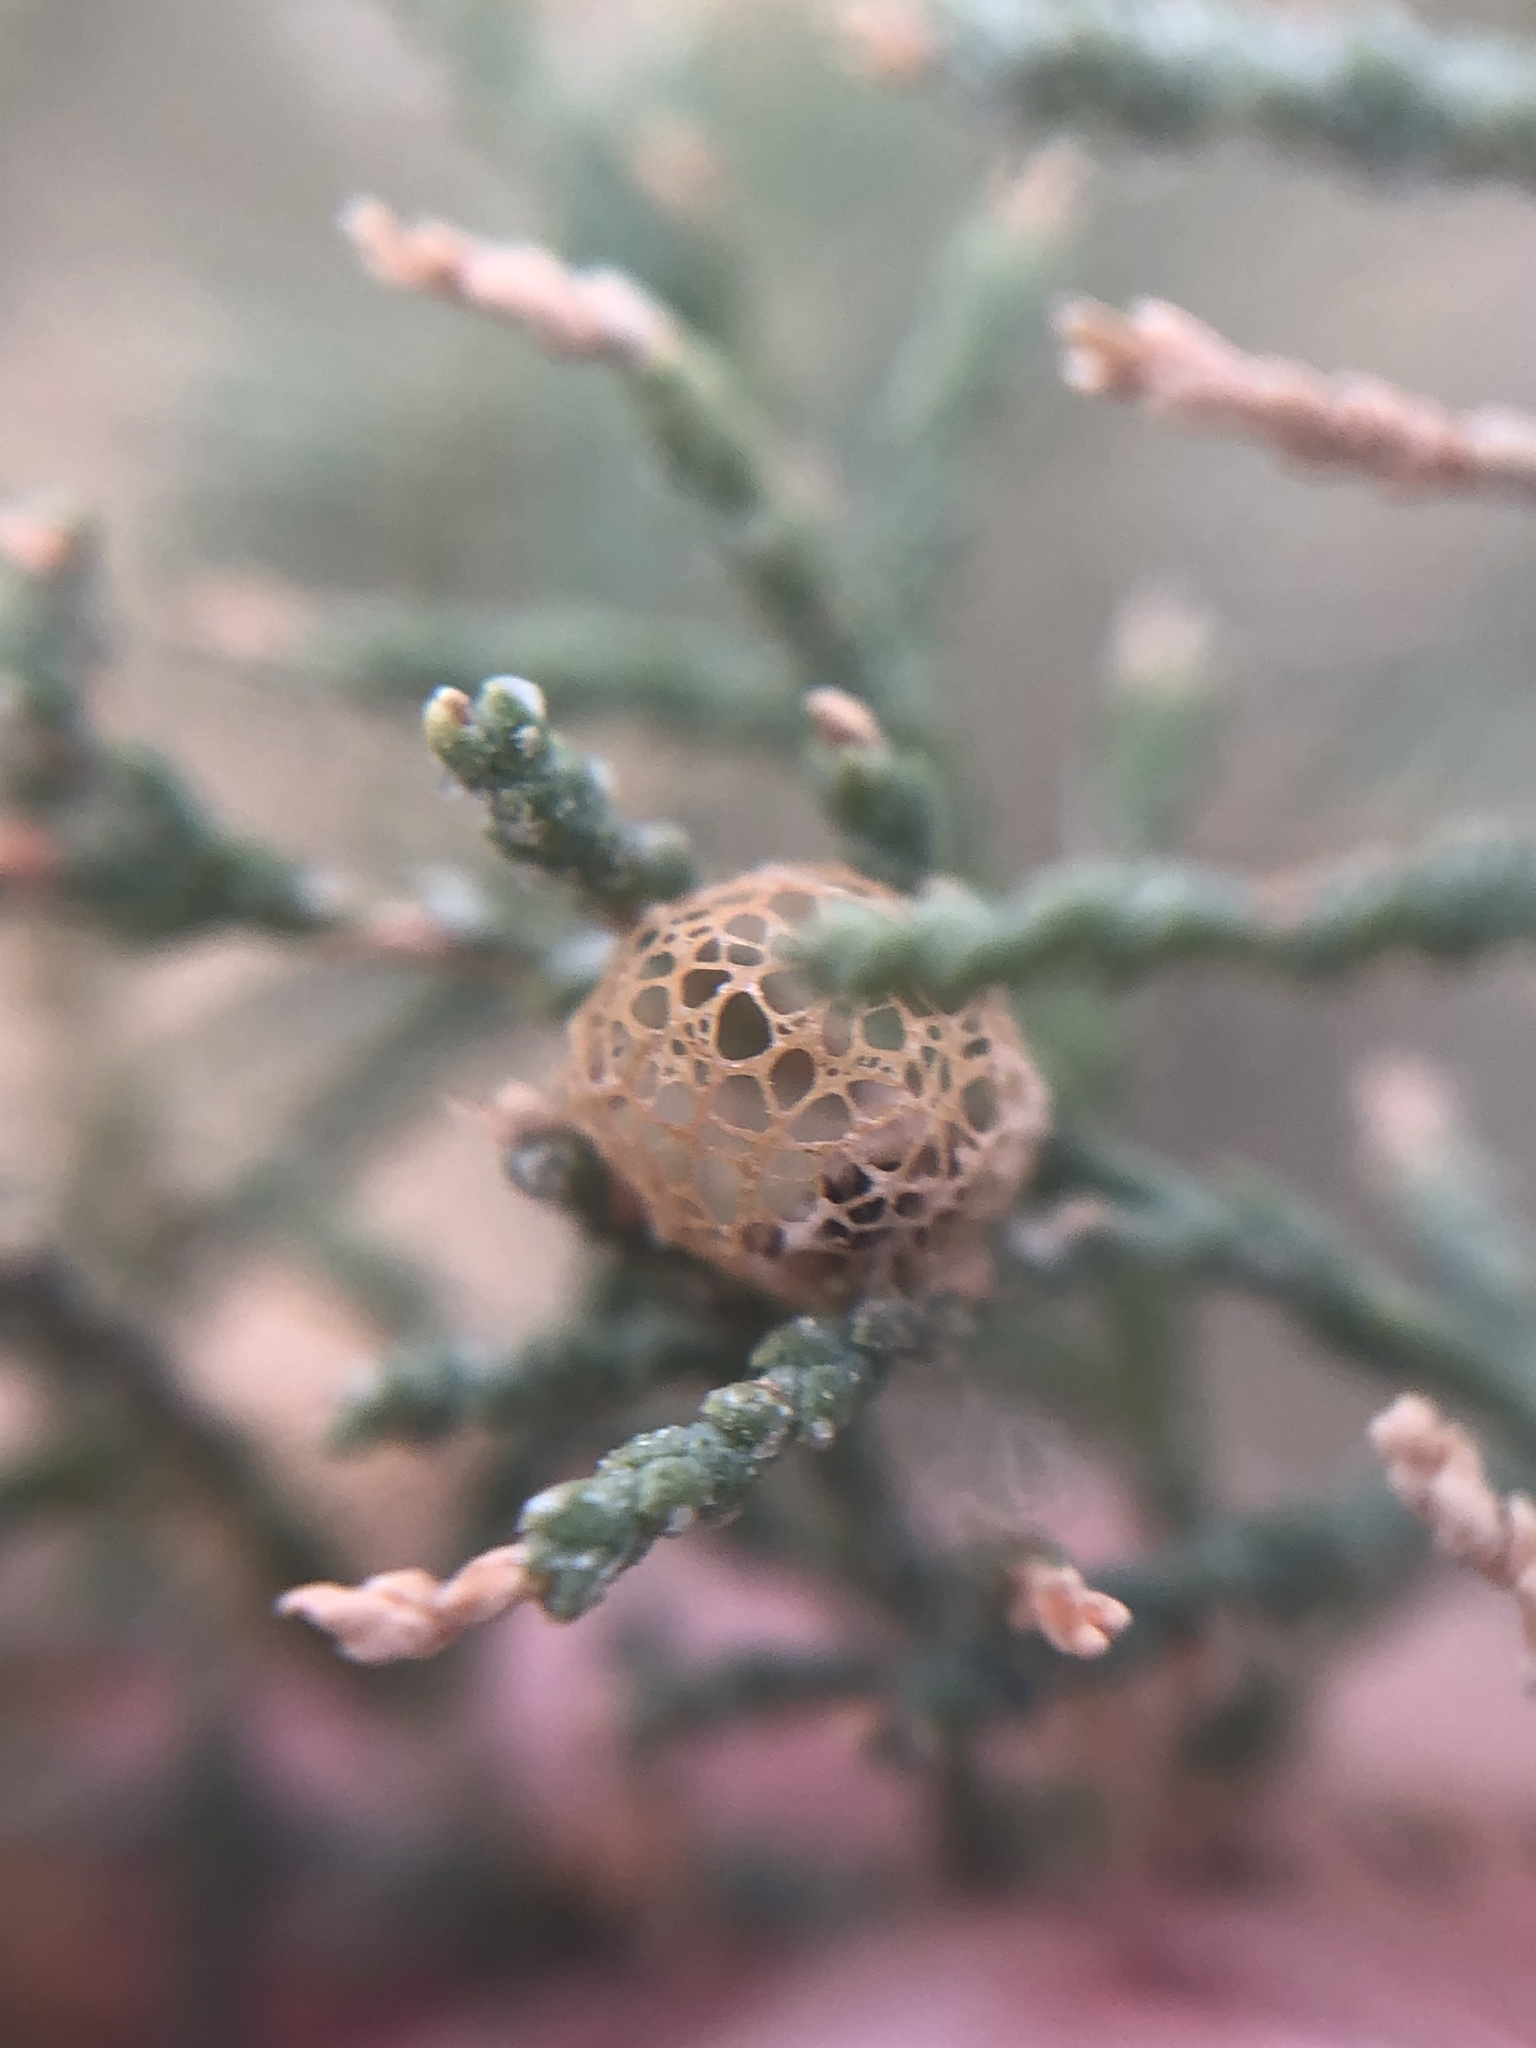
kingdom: Animalia
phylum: Arthropoda
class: Insecta
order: Coleoptera
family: Curculionidae
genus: Coniatus
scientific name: Coniatus splendidulus
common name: Splendid tamarisk weevil
